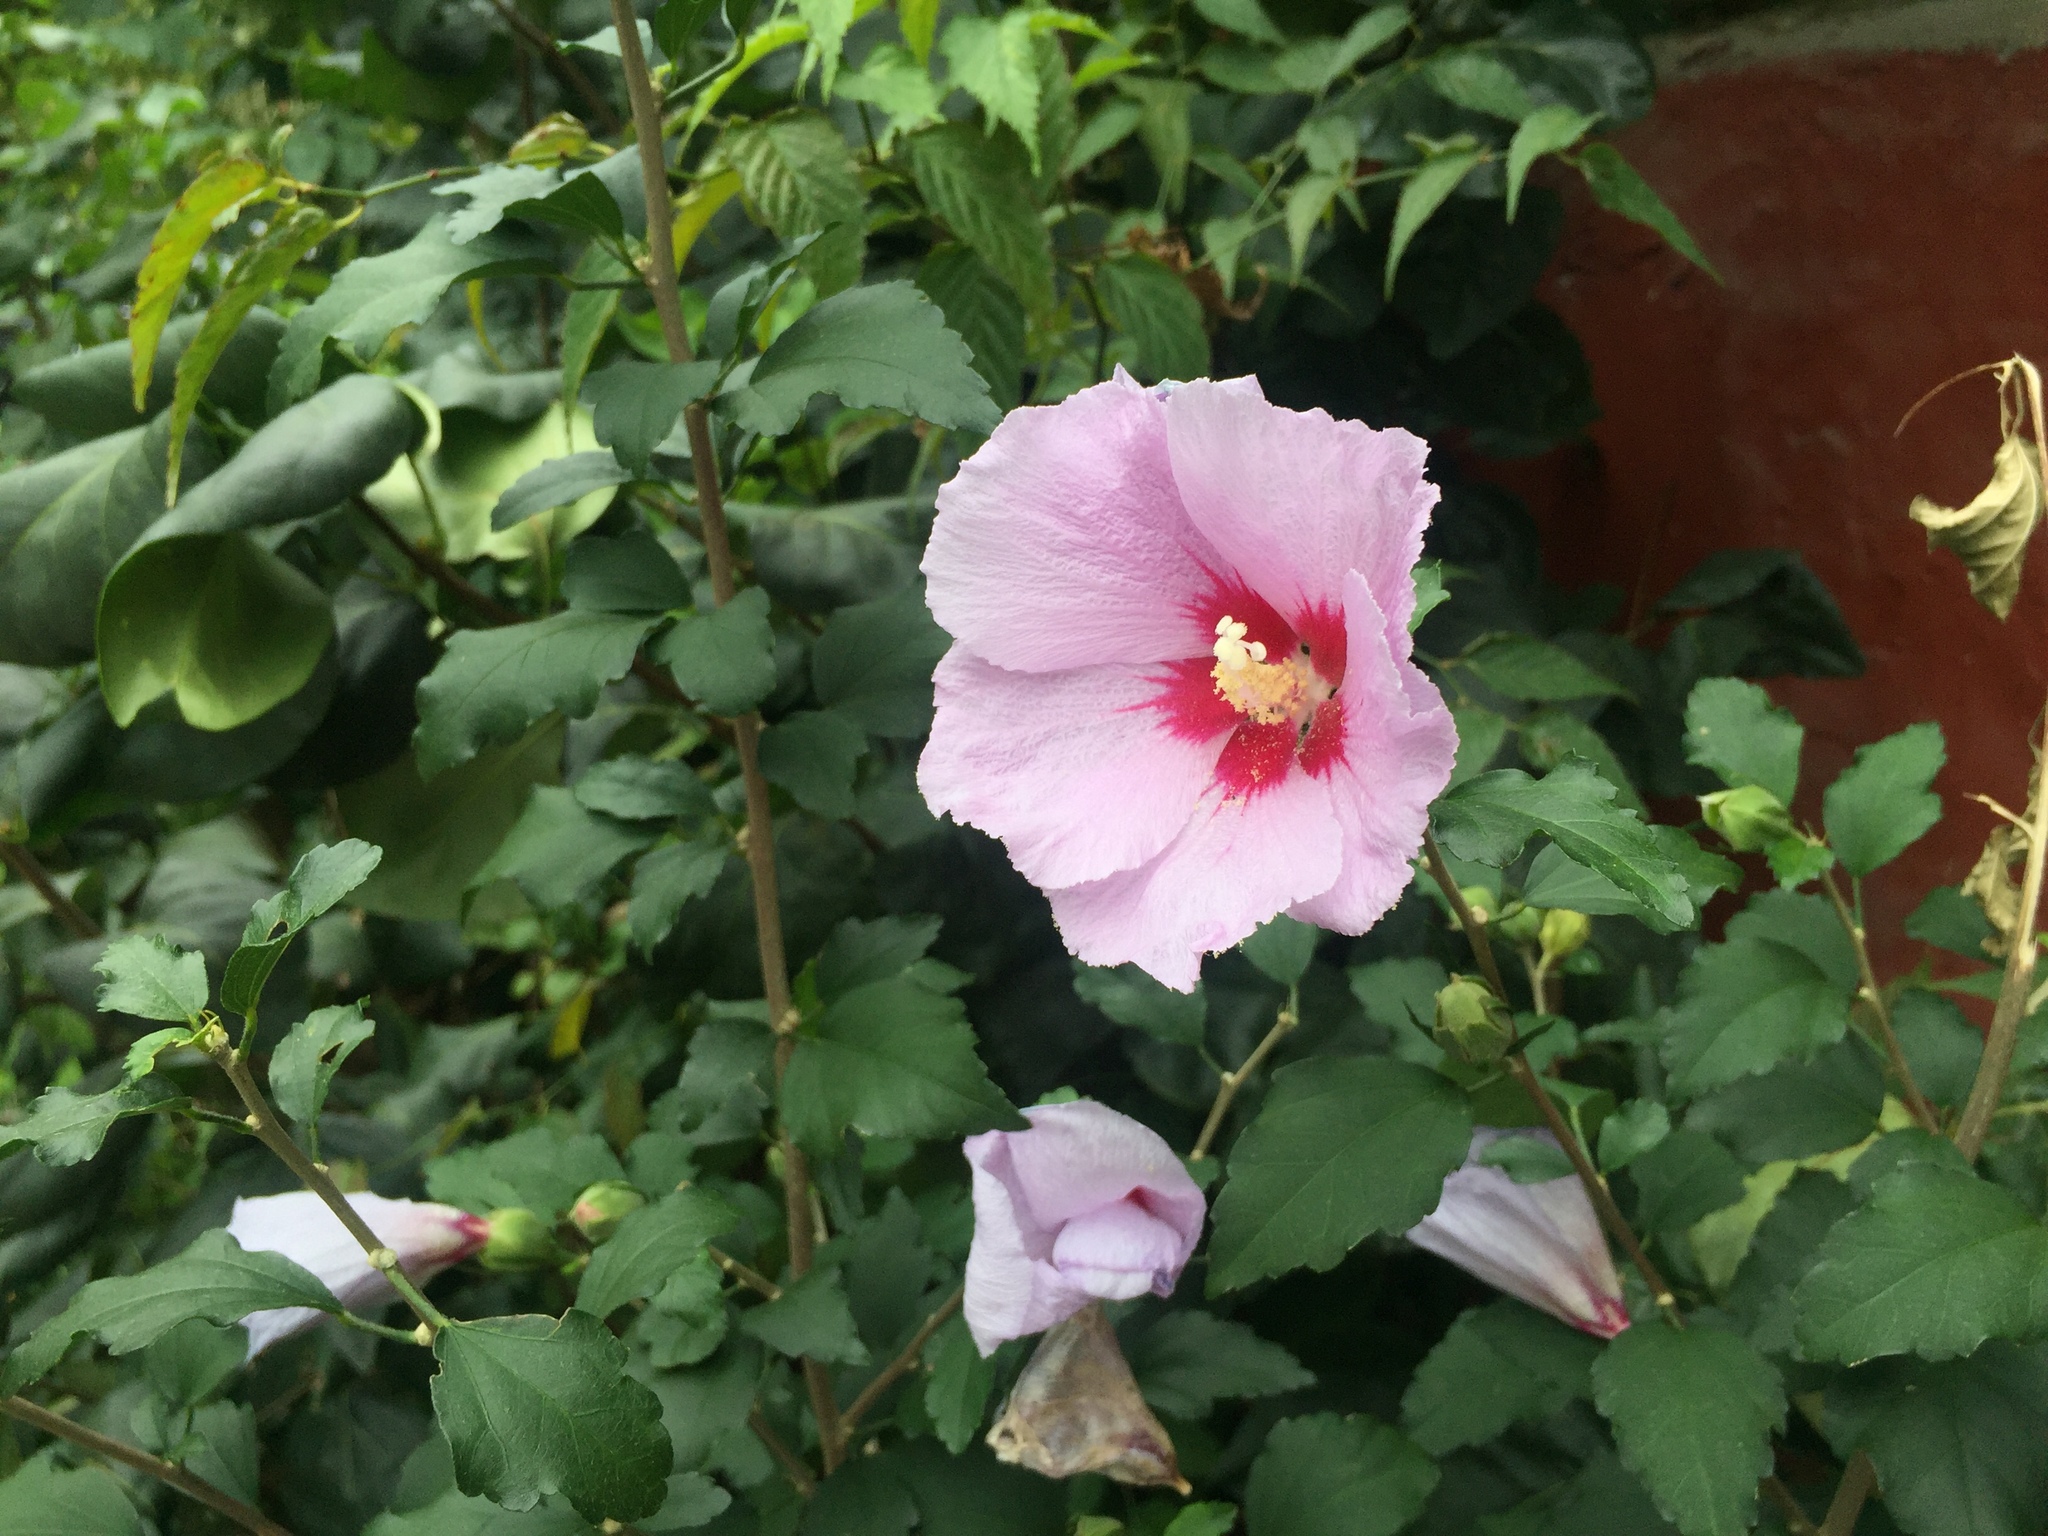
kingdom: Plantae
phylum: Tracheophyta
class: Magnoliopsida
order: Malvales
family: Malvaceae
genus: Hibiscus
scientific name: Hibiscus syriacus
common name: Syrian ketmia
